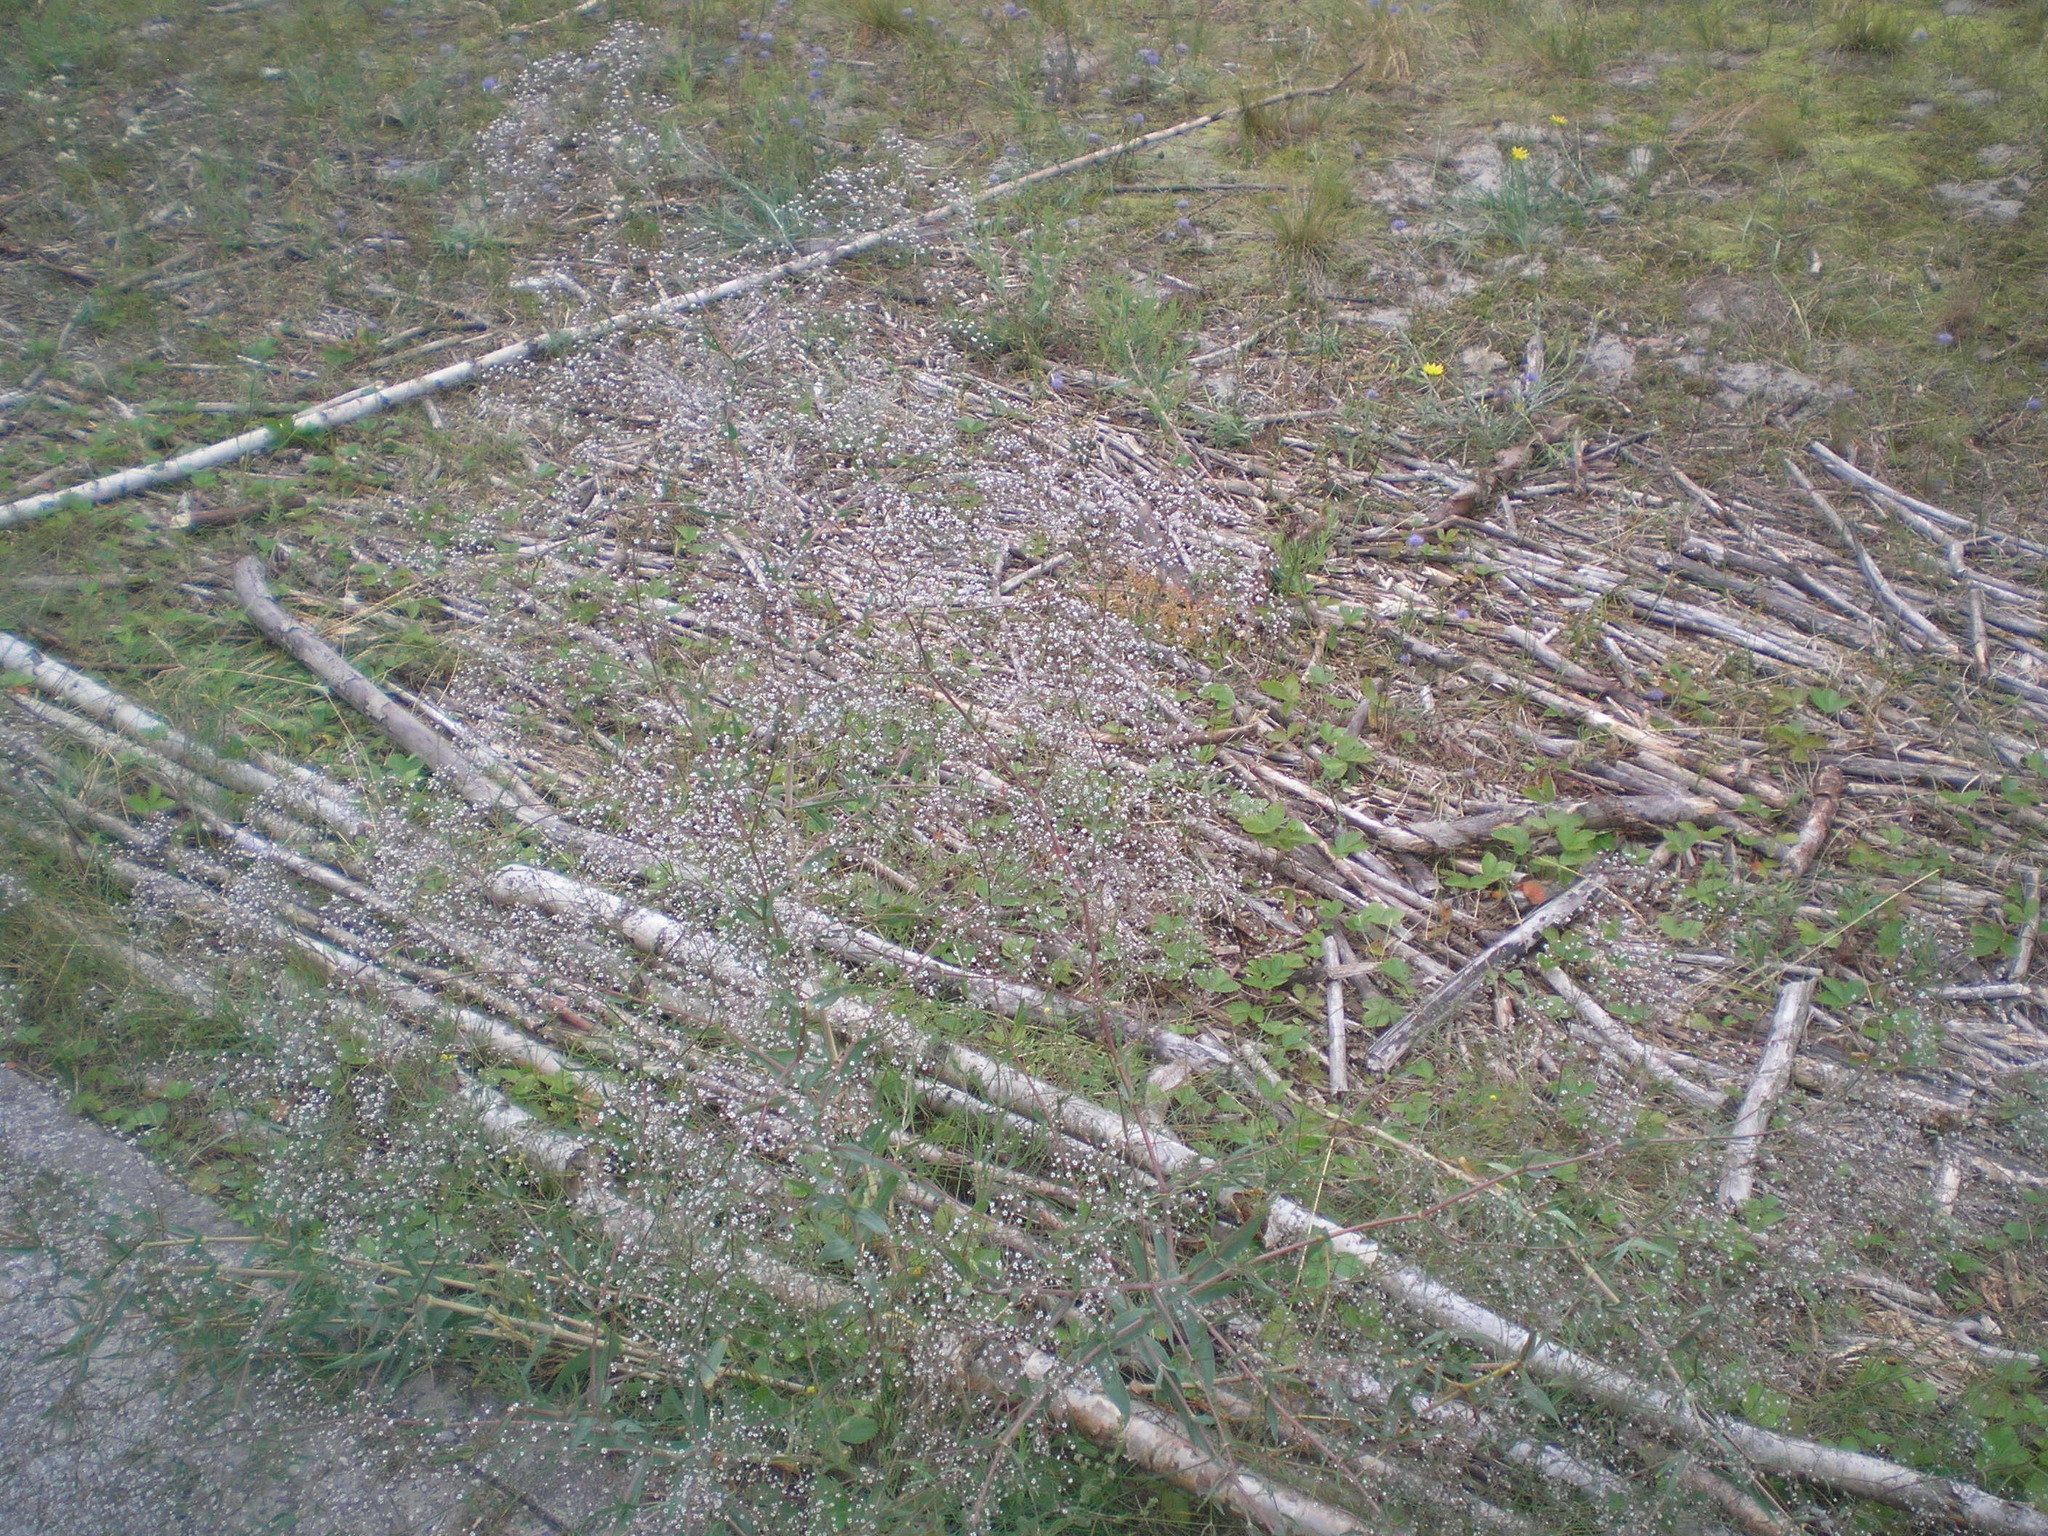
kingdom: Plantae
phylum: Tracheophyta
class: Magnoliopsida
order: Caryophyllales
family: Caryophyllaceae
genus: Gypsophila
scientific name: Gypsophila paniculata
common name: Baby's-breath
